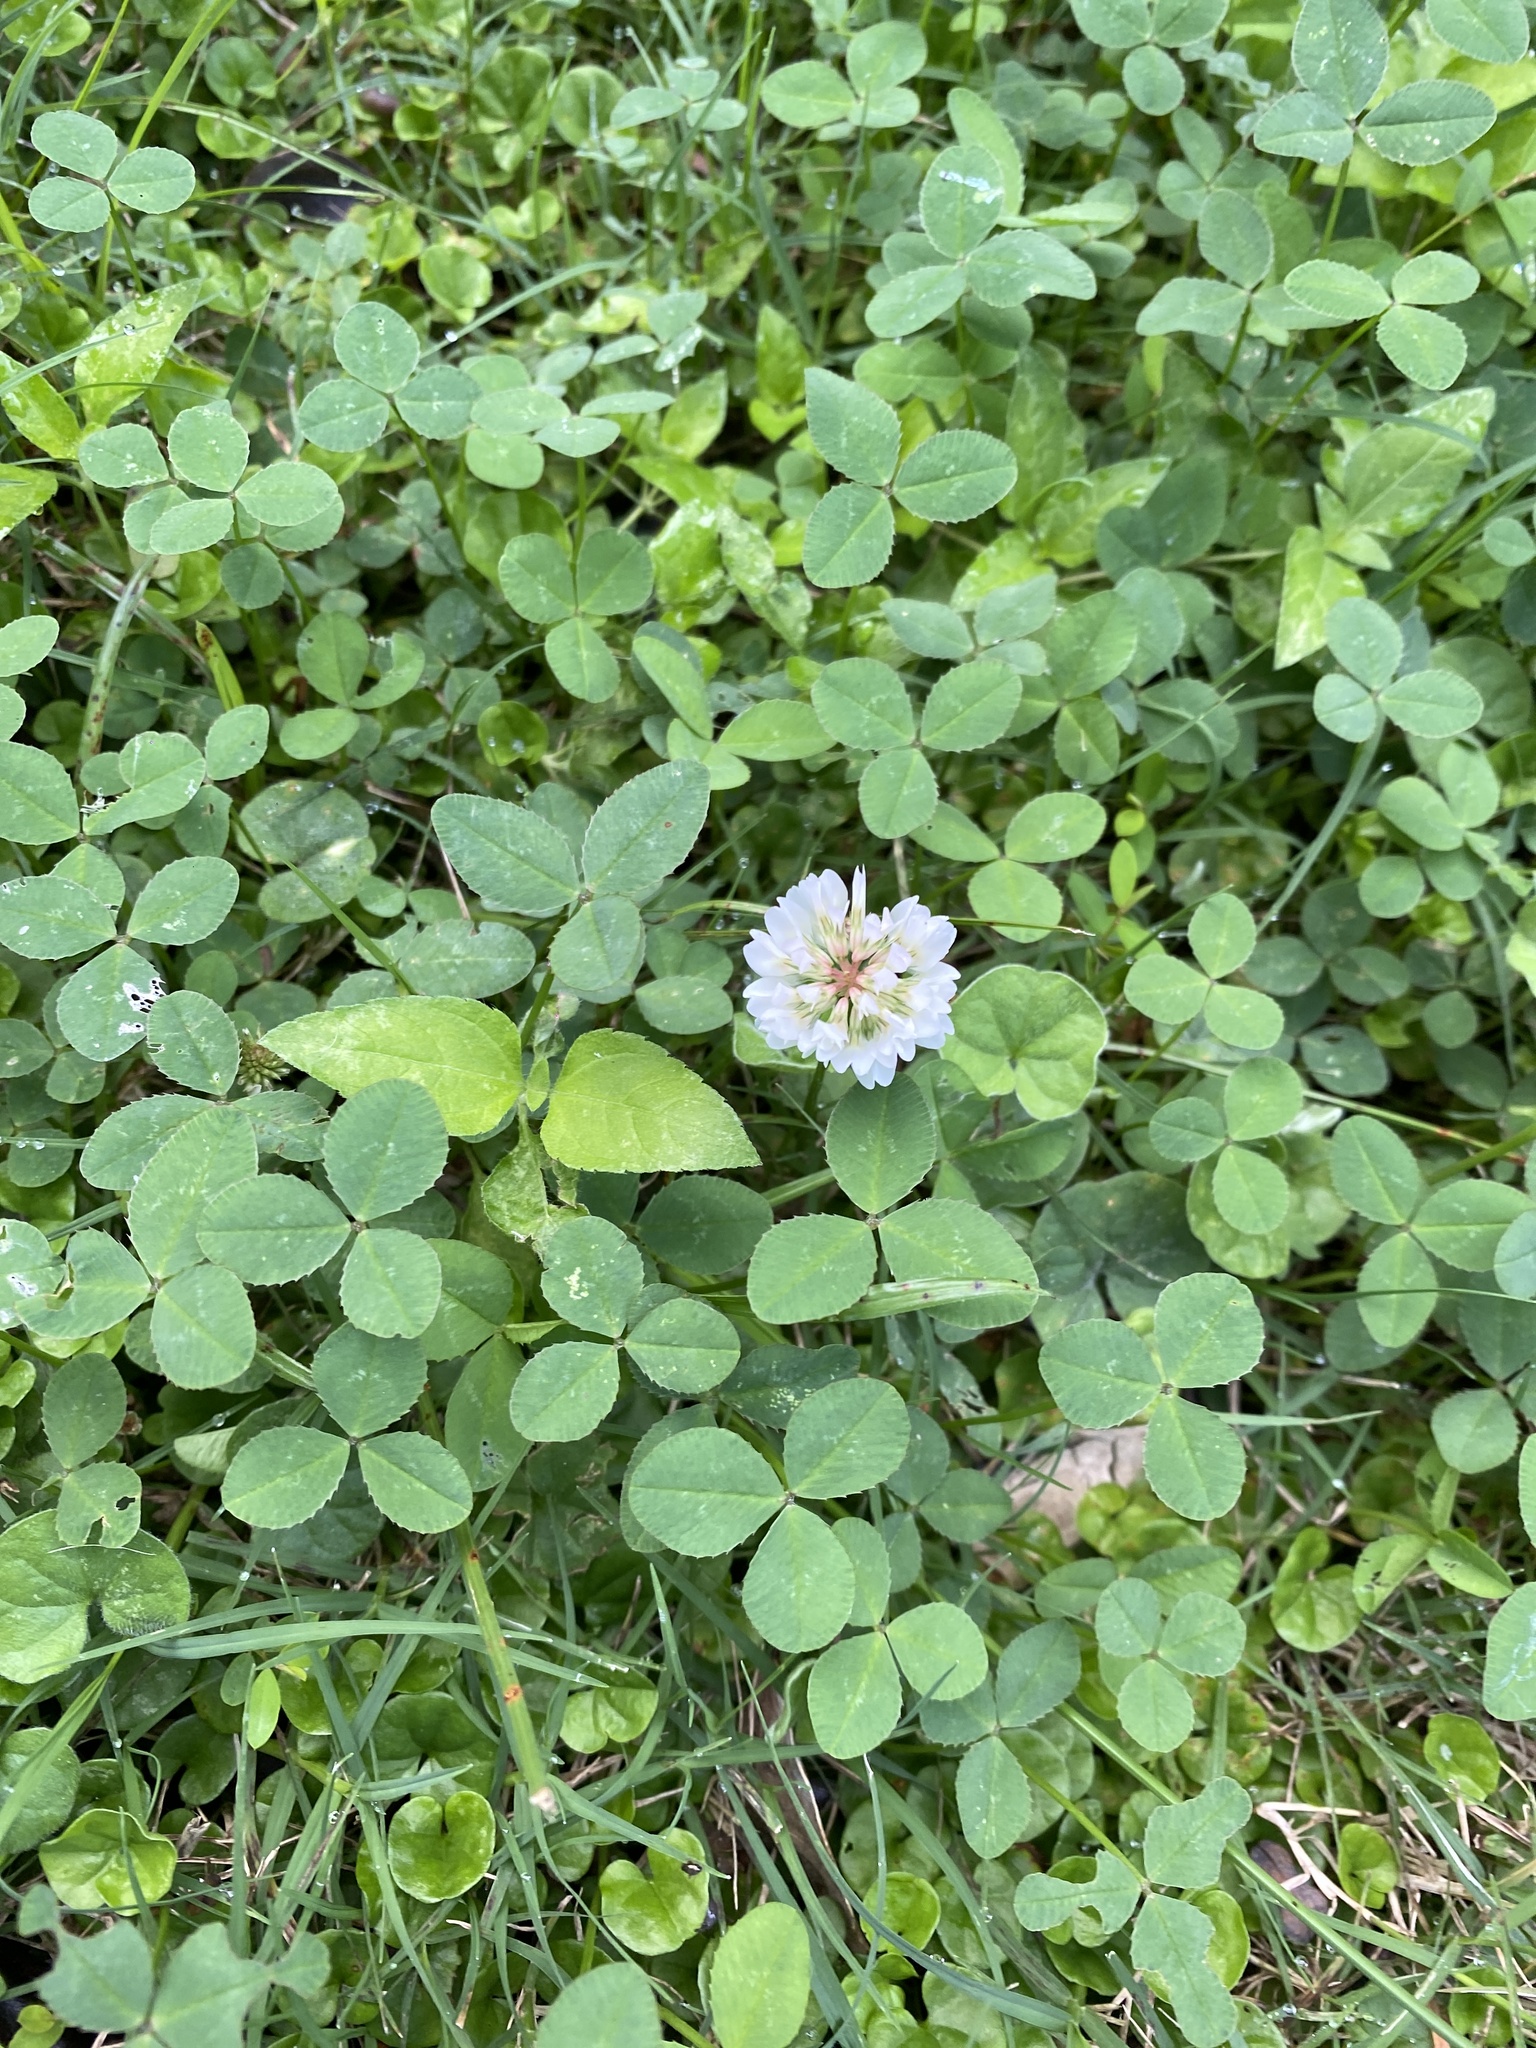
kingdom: Plantae
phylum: Tracheophyta
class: Magnoliopsida
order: Fabales
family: Fabaceae
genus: Trifolium
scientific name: Trifolium repens
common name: White clover
